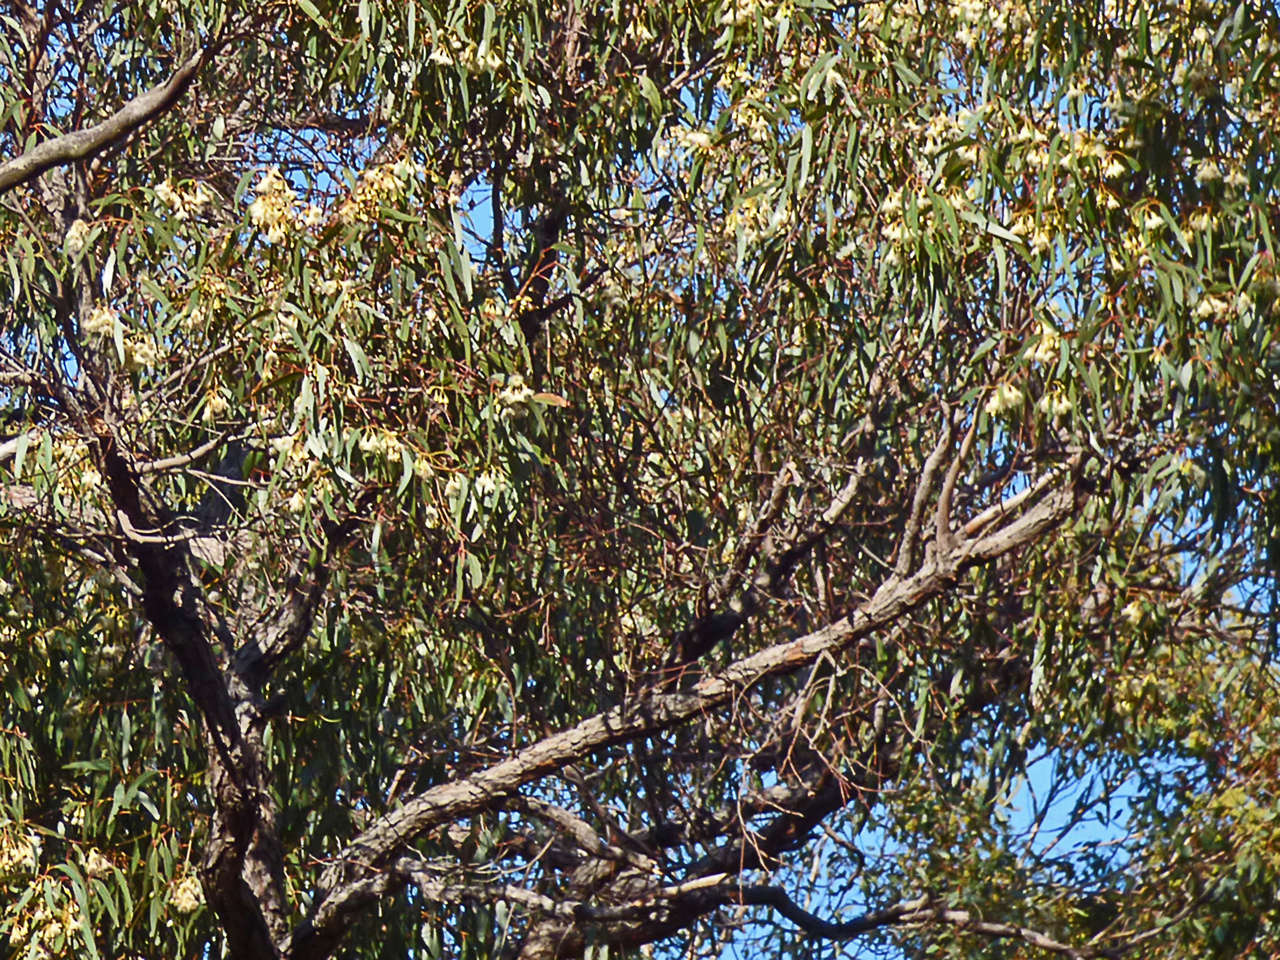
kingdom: Plantae
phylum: Tracheophyta
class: Magnoliopsida
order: Myrtales
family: Myrtaceae
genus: Eucalyptus
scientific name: Eucalyptus tricarpa
